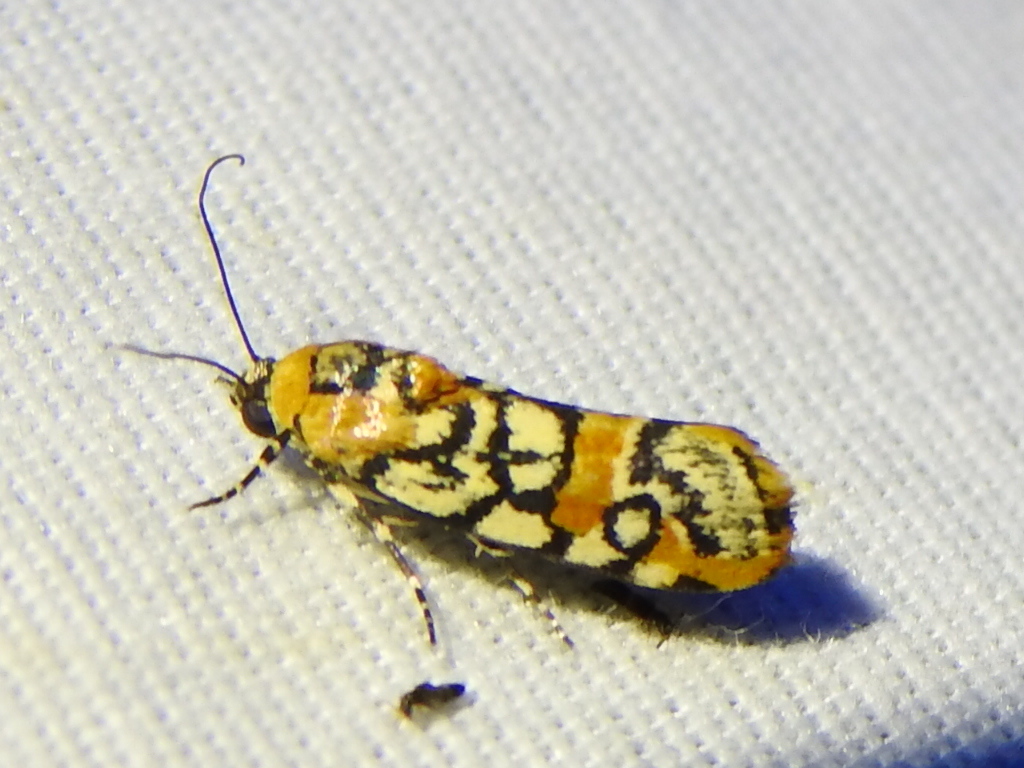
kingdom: Animalia
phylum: Arthropoda
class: Insecta
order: Lepidoptera
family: Noctuidae
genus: Spragueia
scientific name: Spragueia guttata
